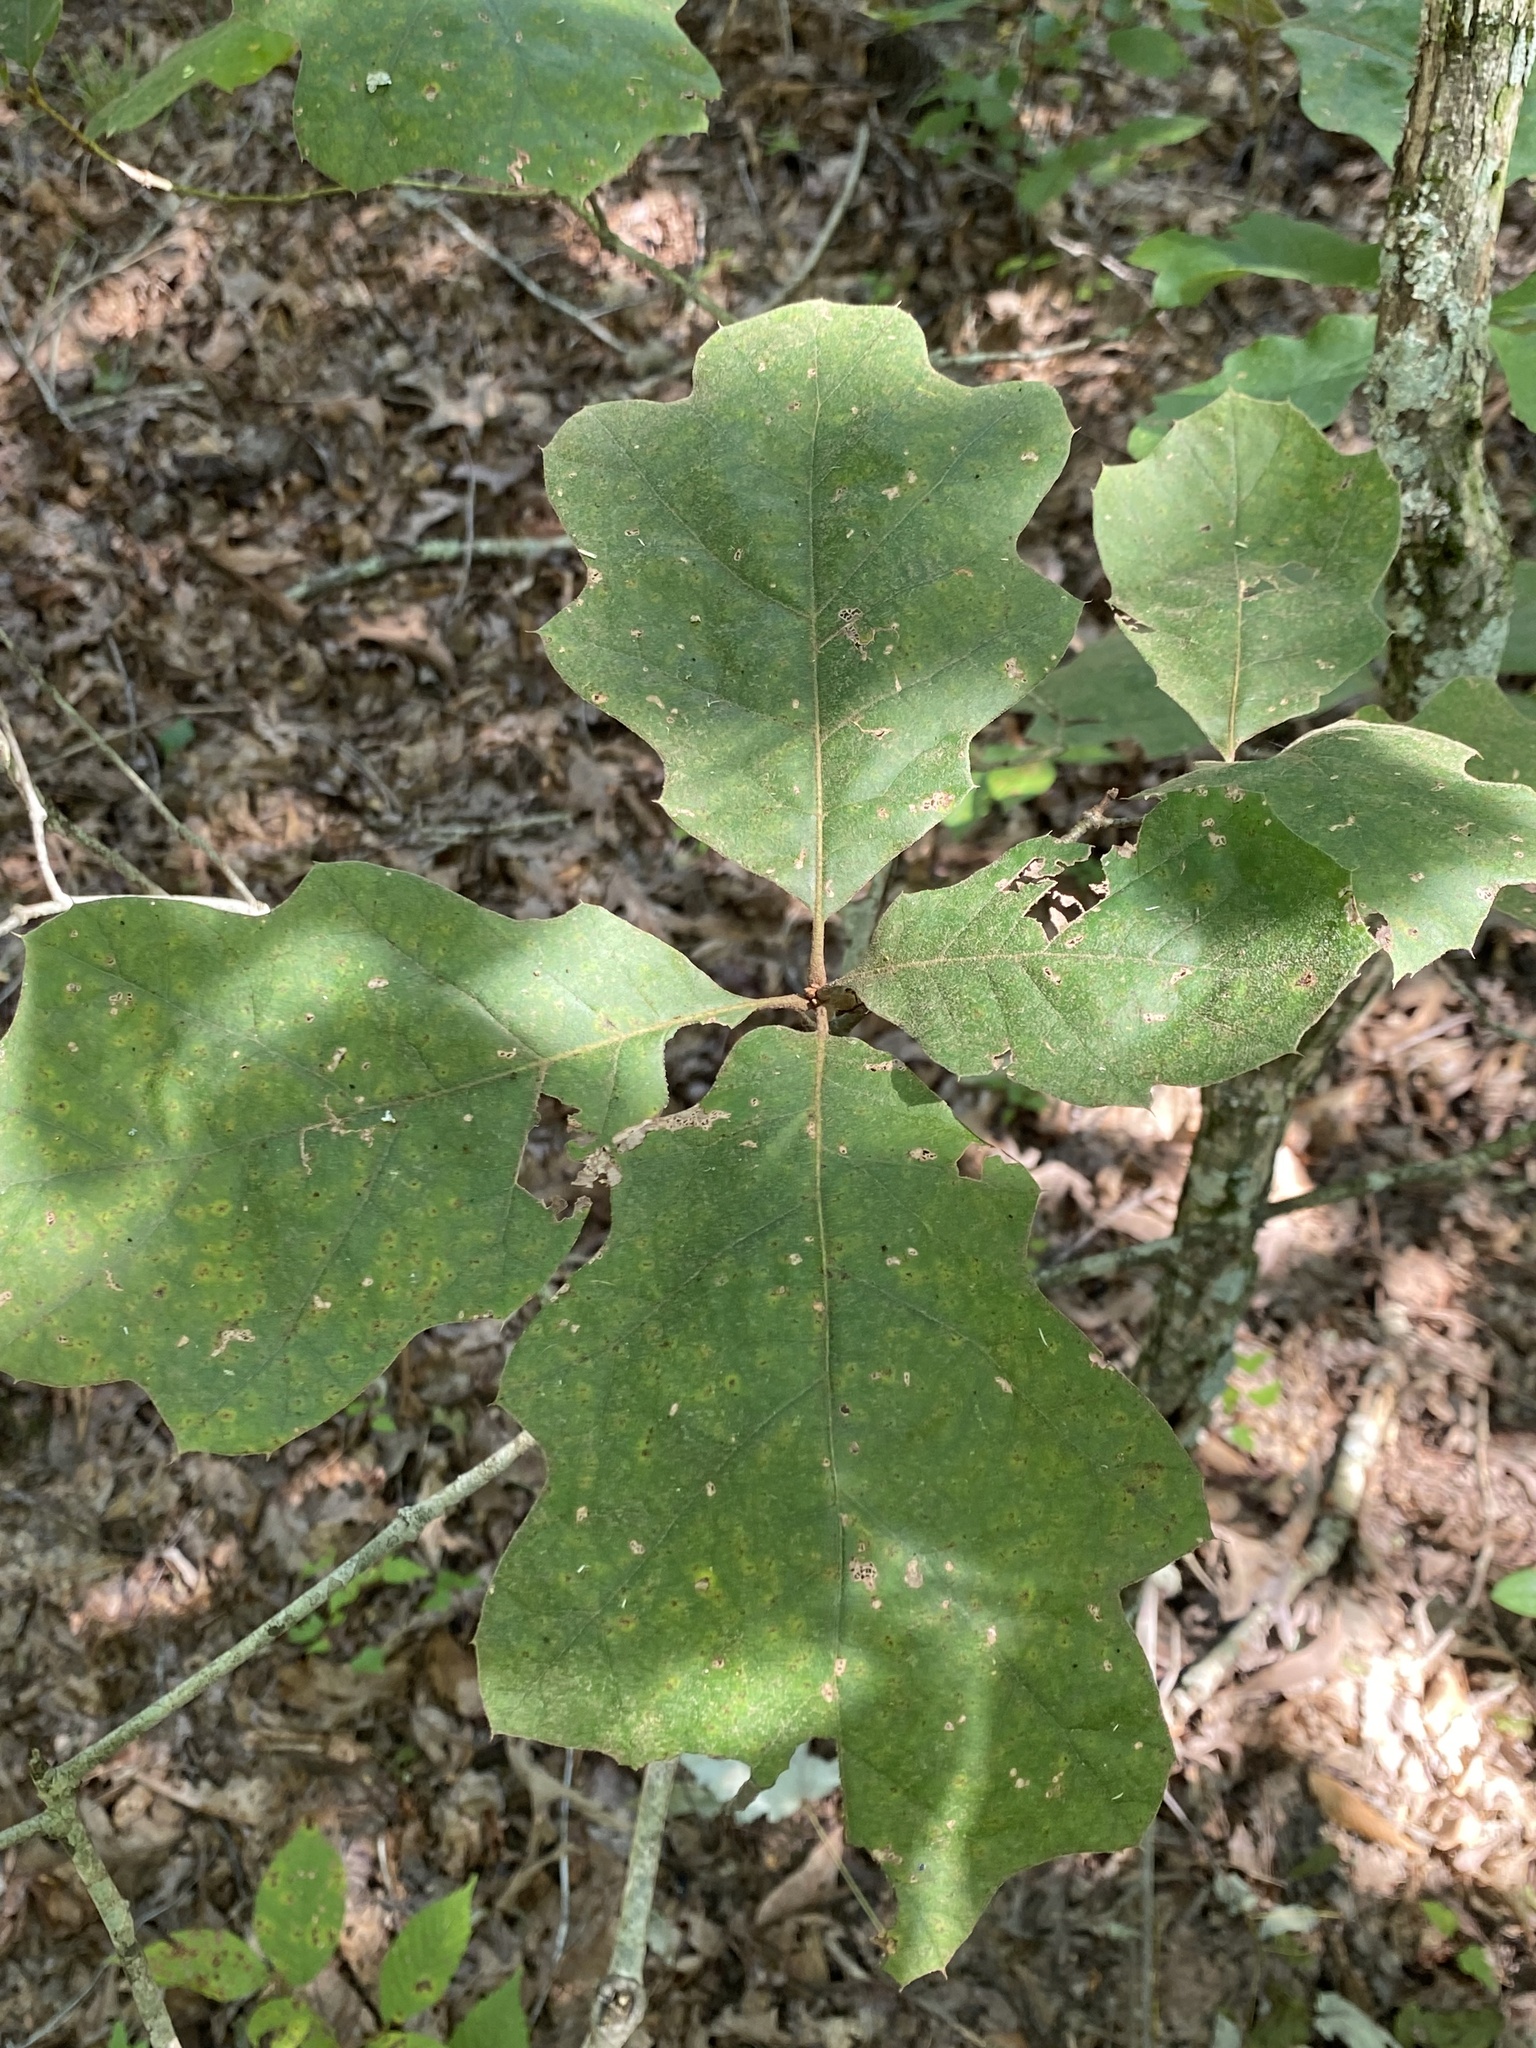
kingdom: Plantae
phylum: Tracheophyta
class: Magnoliopsida
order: Fagales
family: Fagaceae
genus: Quercus
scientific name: Quercus velutina
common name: Black oak
